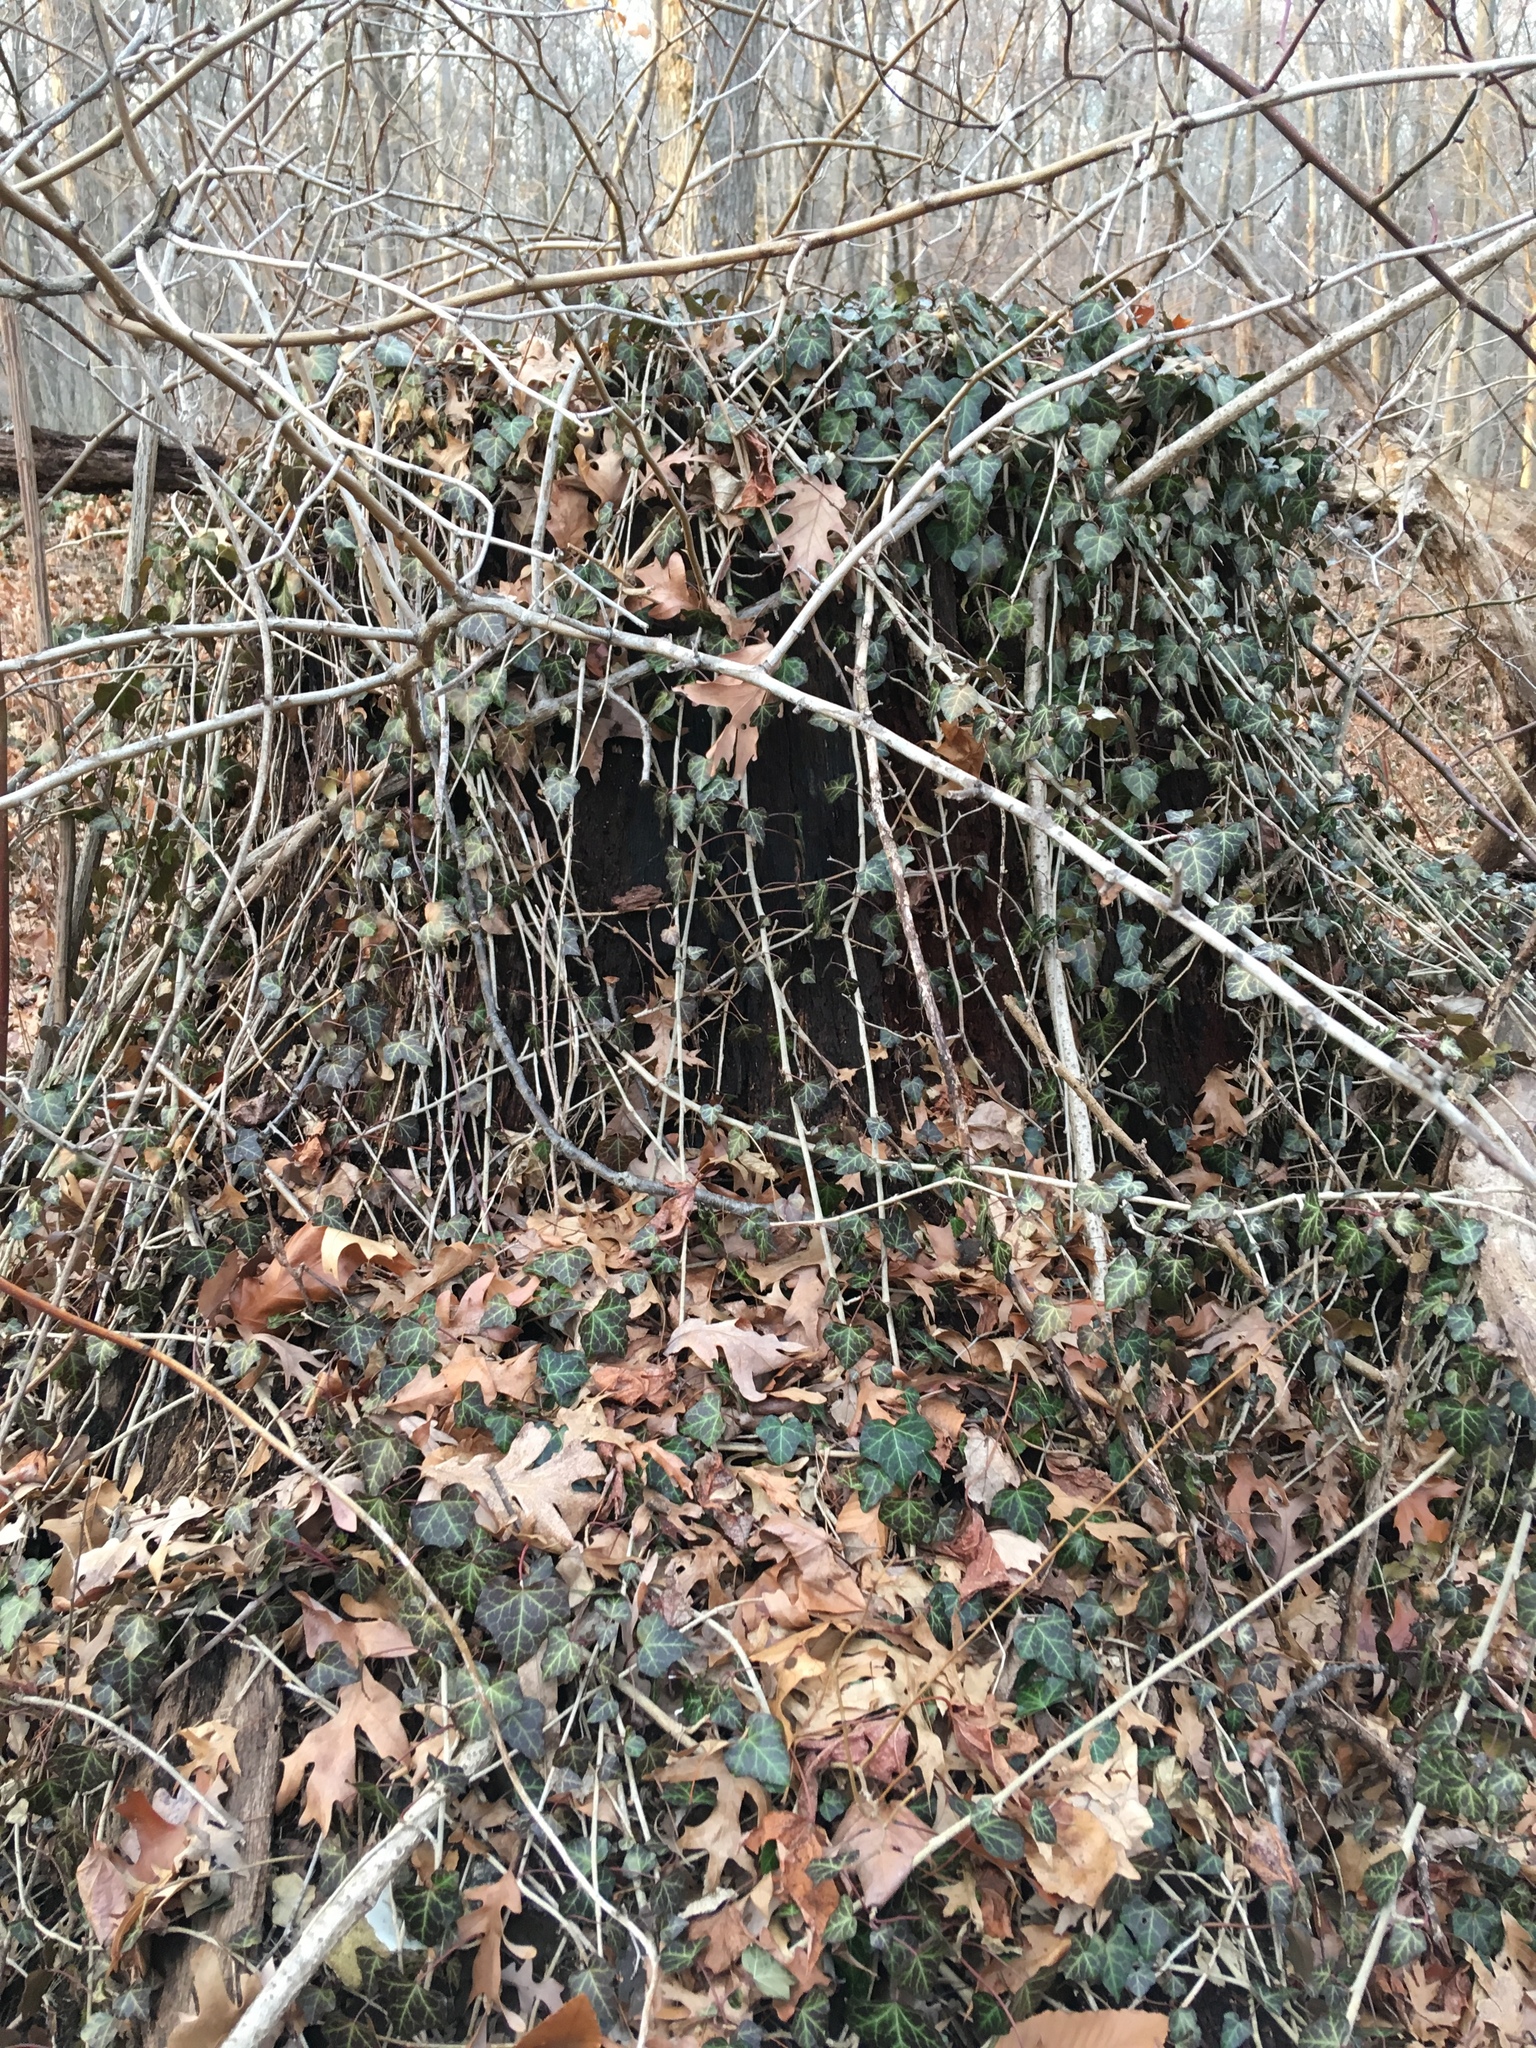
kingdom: Plantae
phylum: Tracheophyta
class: Magnoliopsida
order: Apiales
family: Araliaceae
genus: Hedera
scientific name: Hedera helix
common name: Ivy
